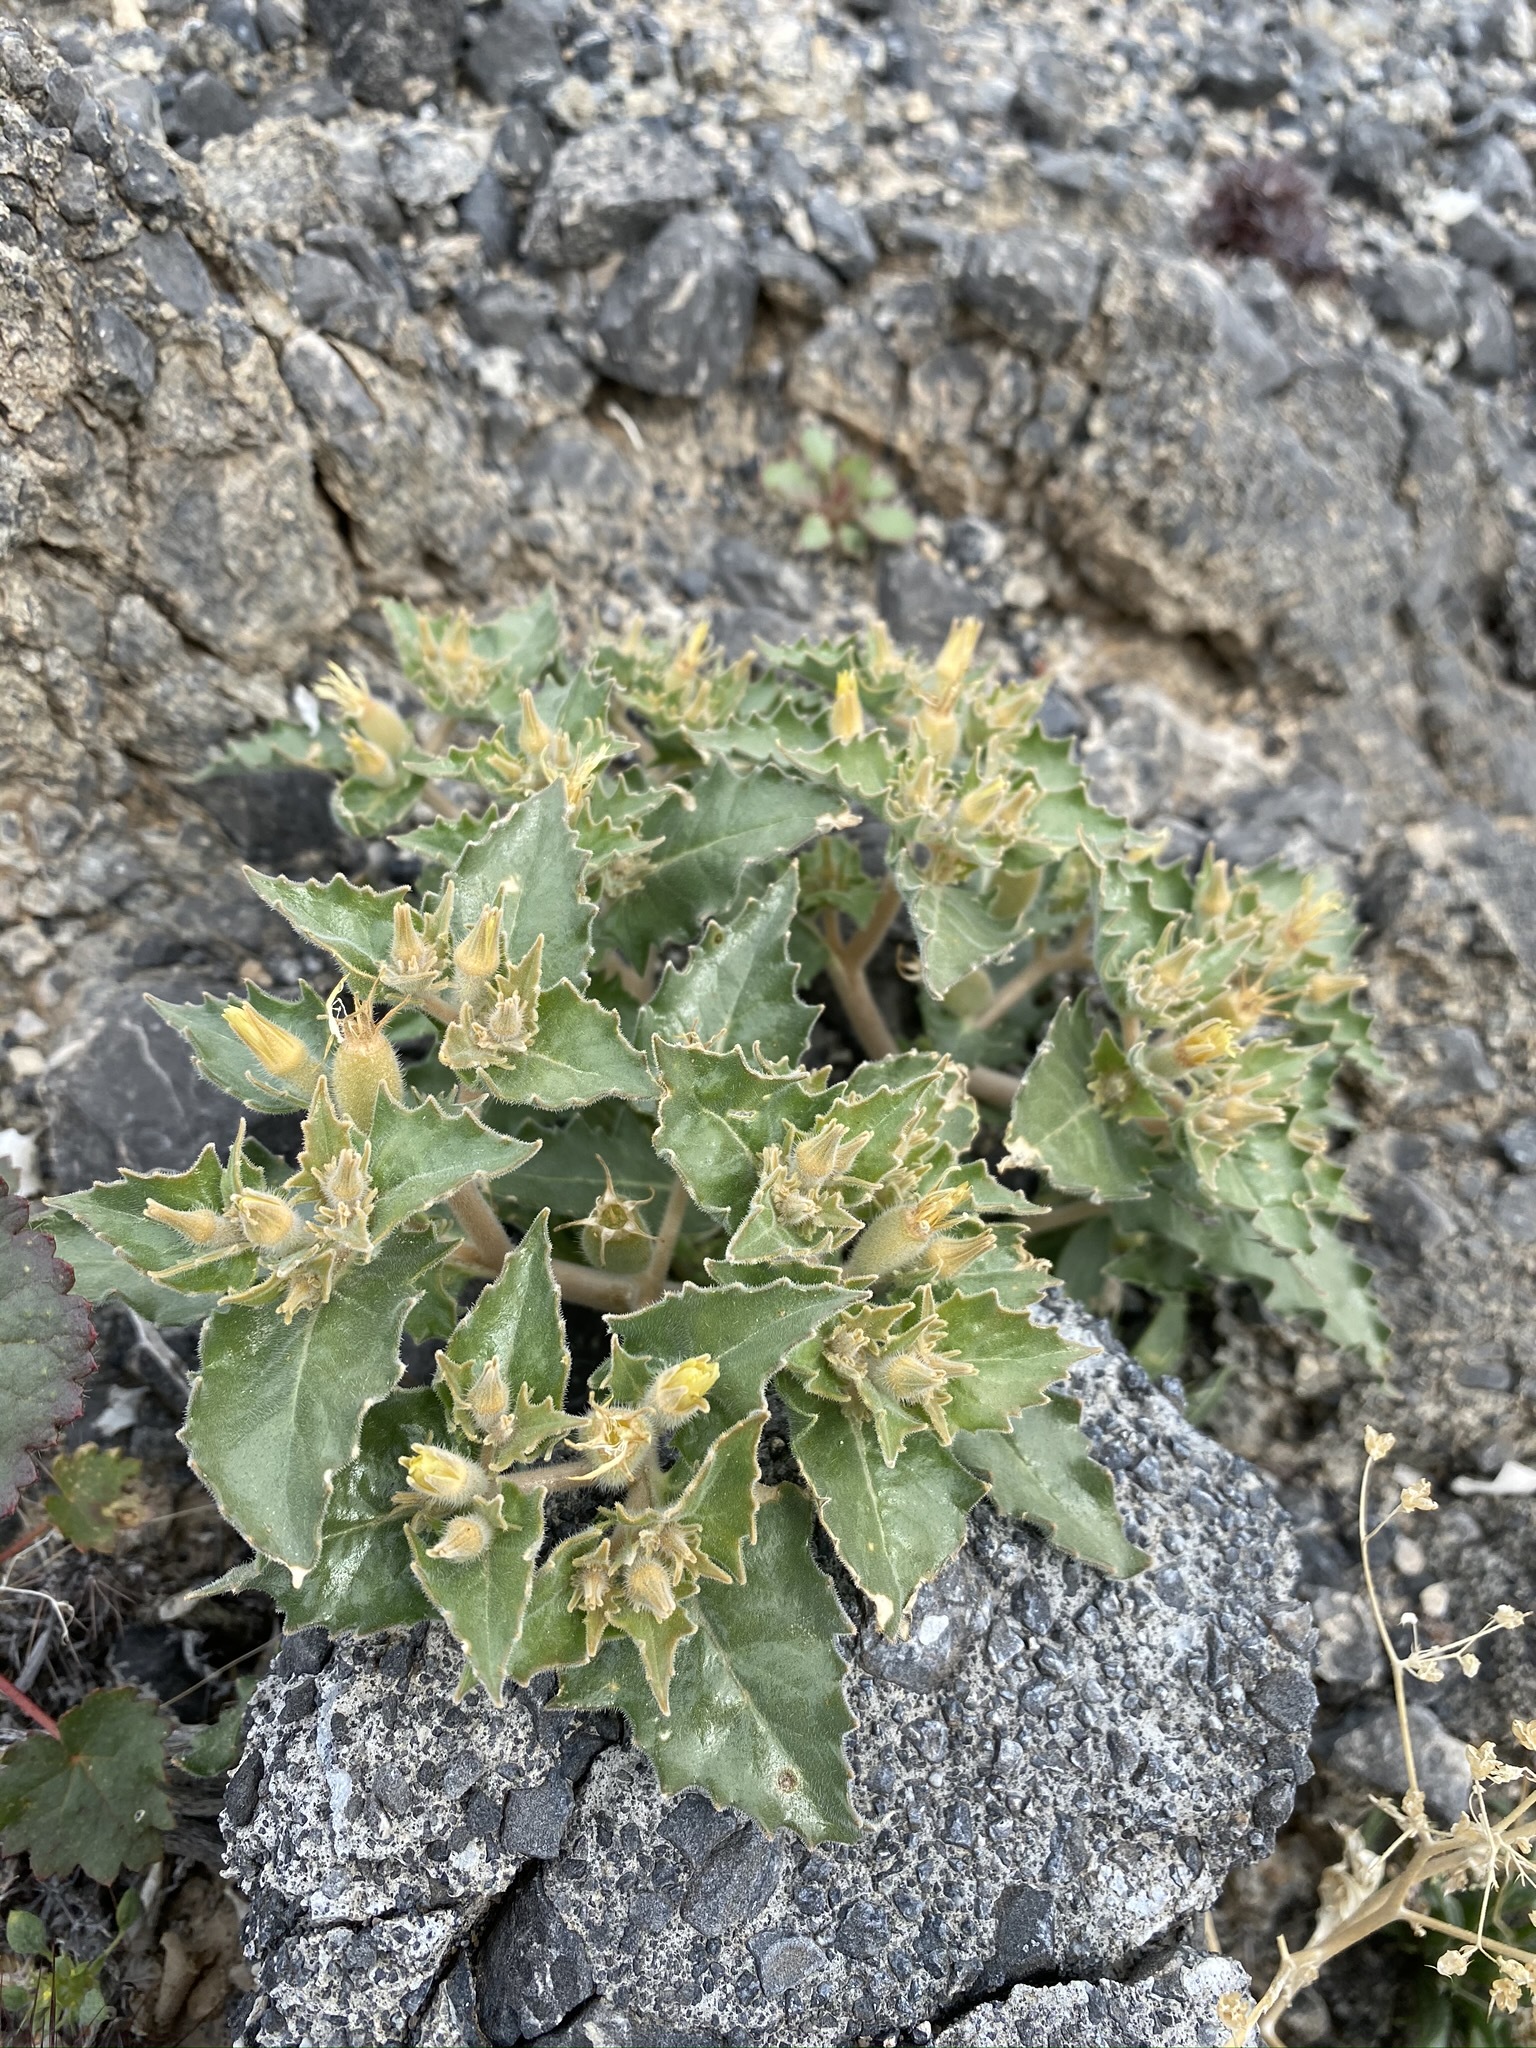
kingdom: Plantae
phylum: Tracheophyta
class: Magnoliopsida
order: Cornales
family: Loasaceae
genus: Mentzelia
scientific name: Mentzelia reflexa
